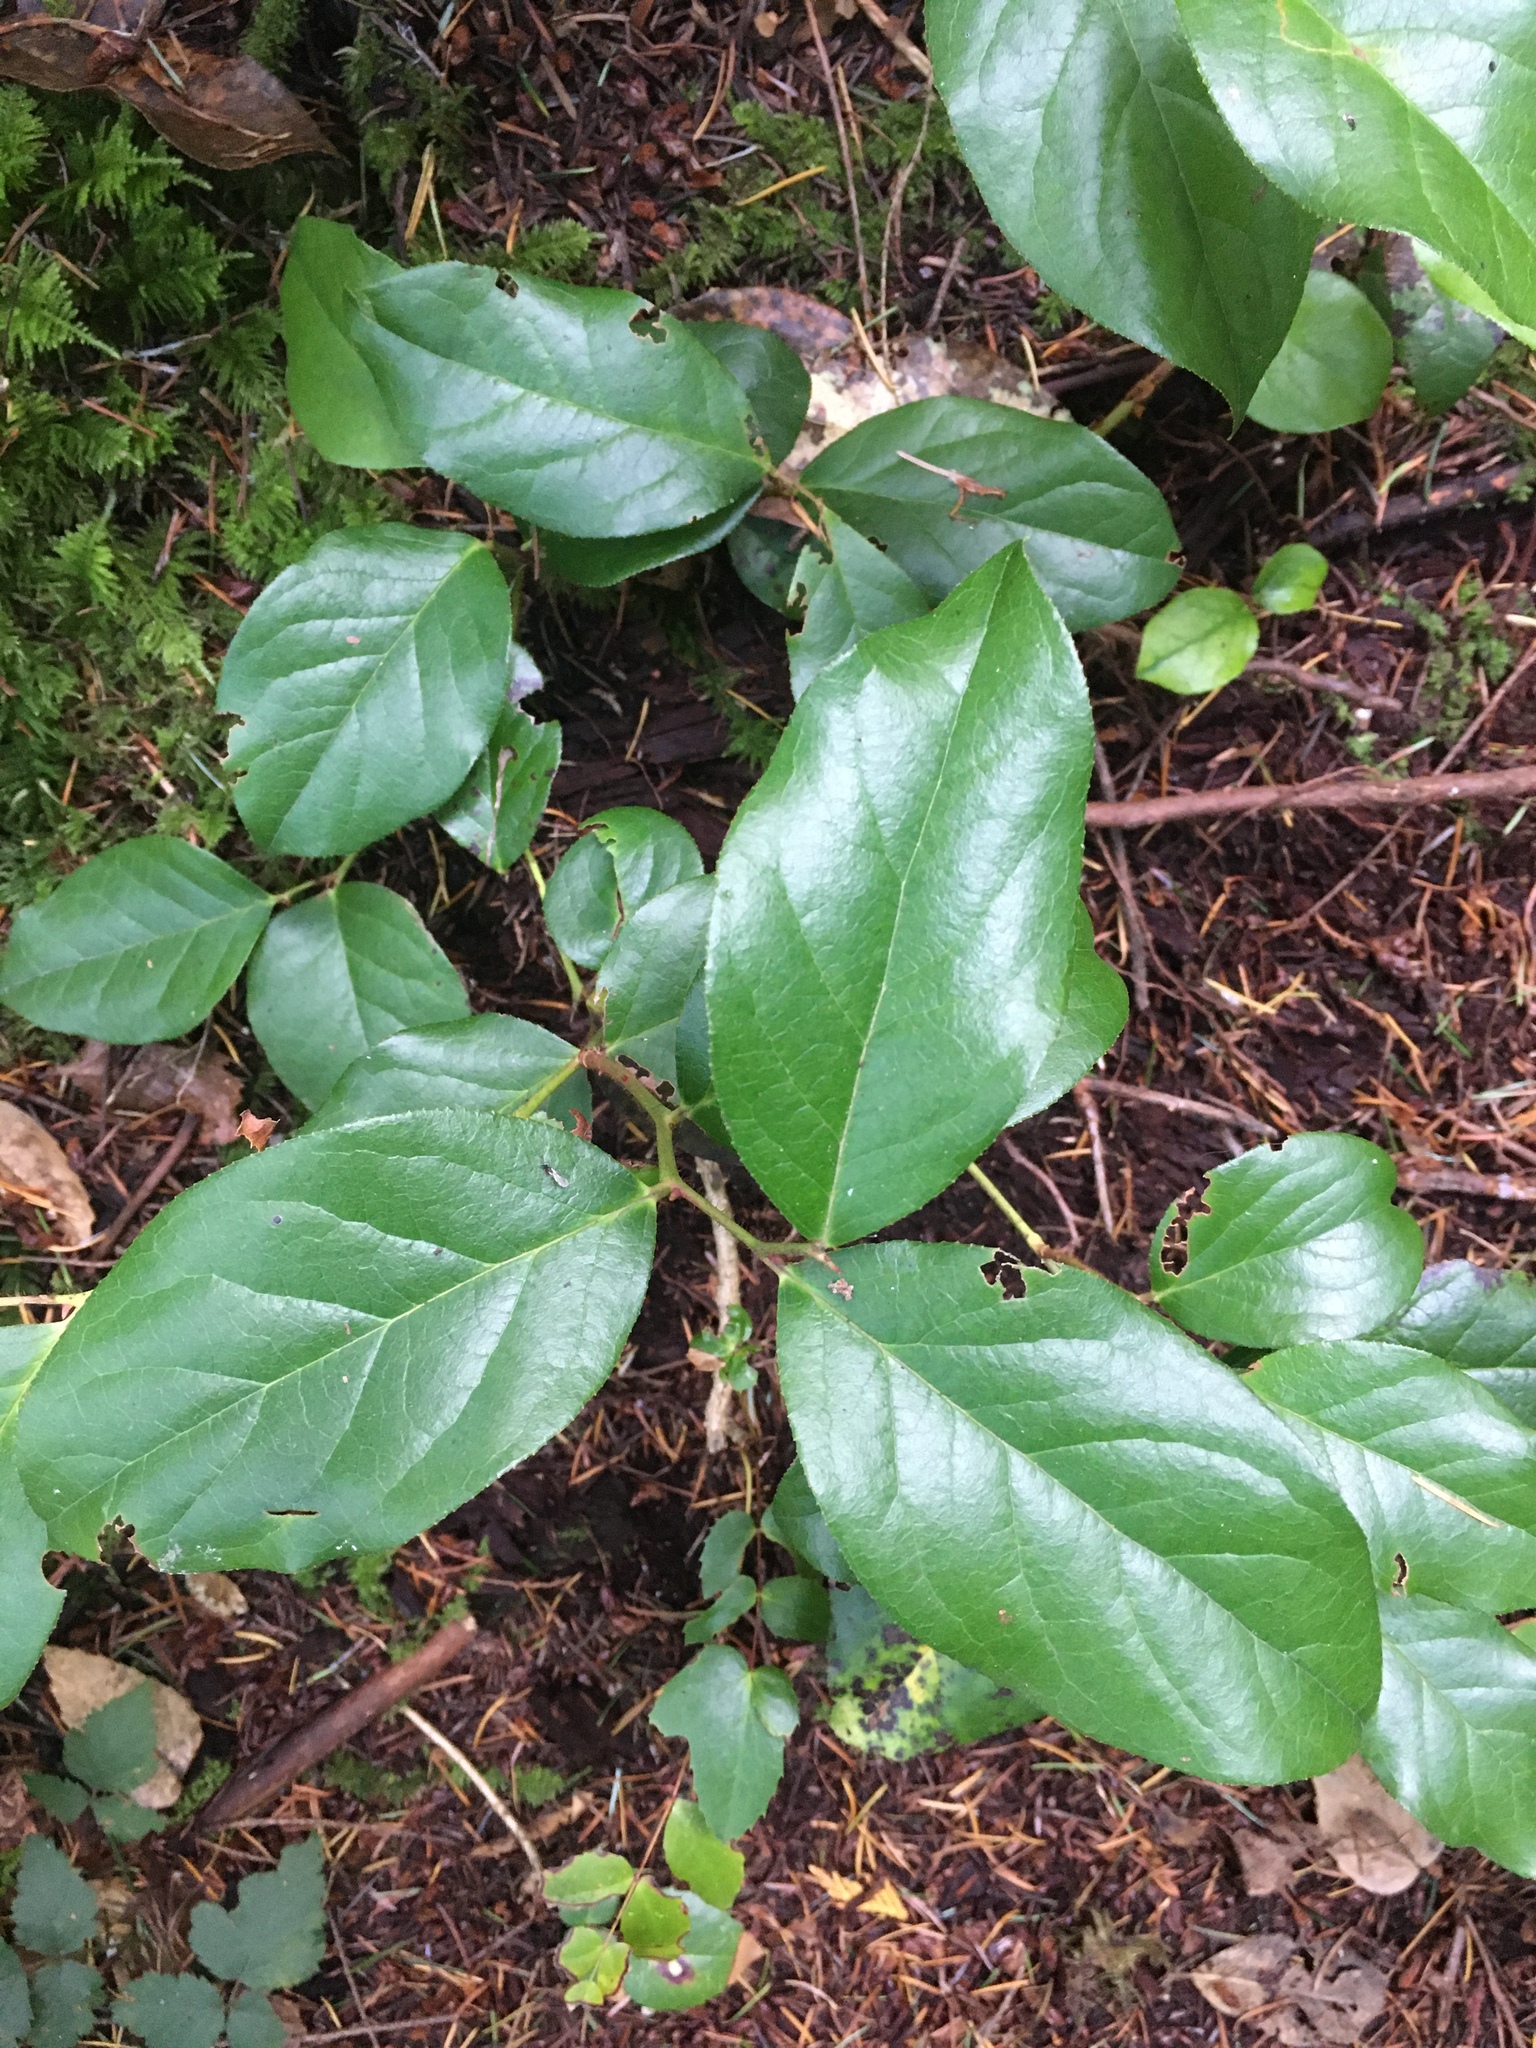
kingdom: Plantae
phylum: Tracheophyta
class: Magnoliopsida
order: Ericales
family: Ericaceae
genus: Gaultheria
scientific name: Gaultheria shallon
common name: Shallon
